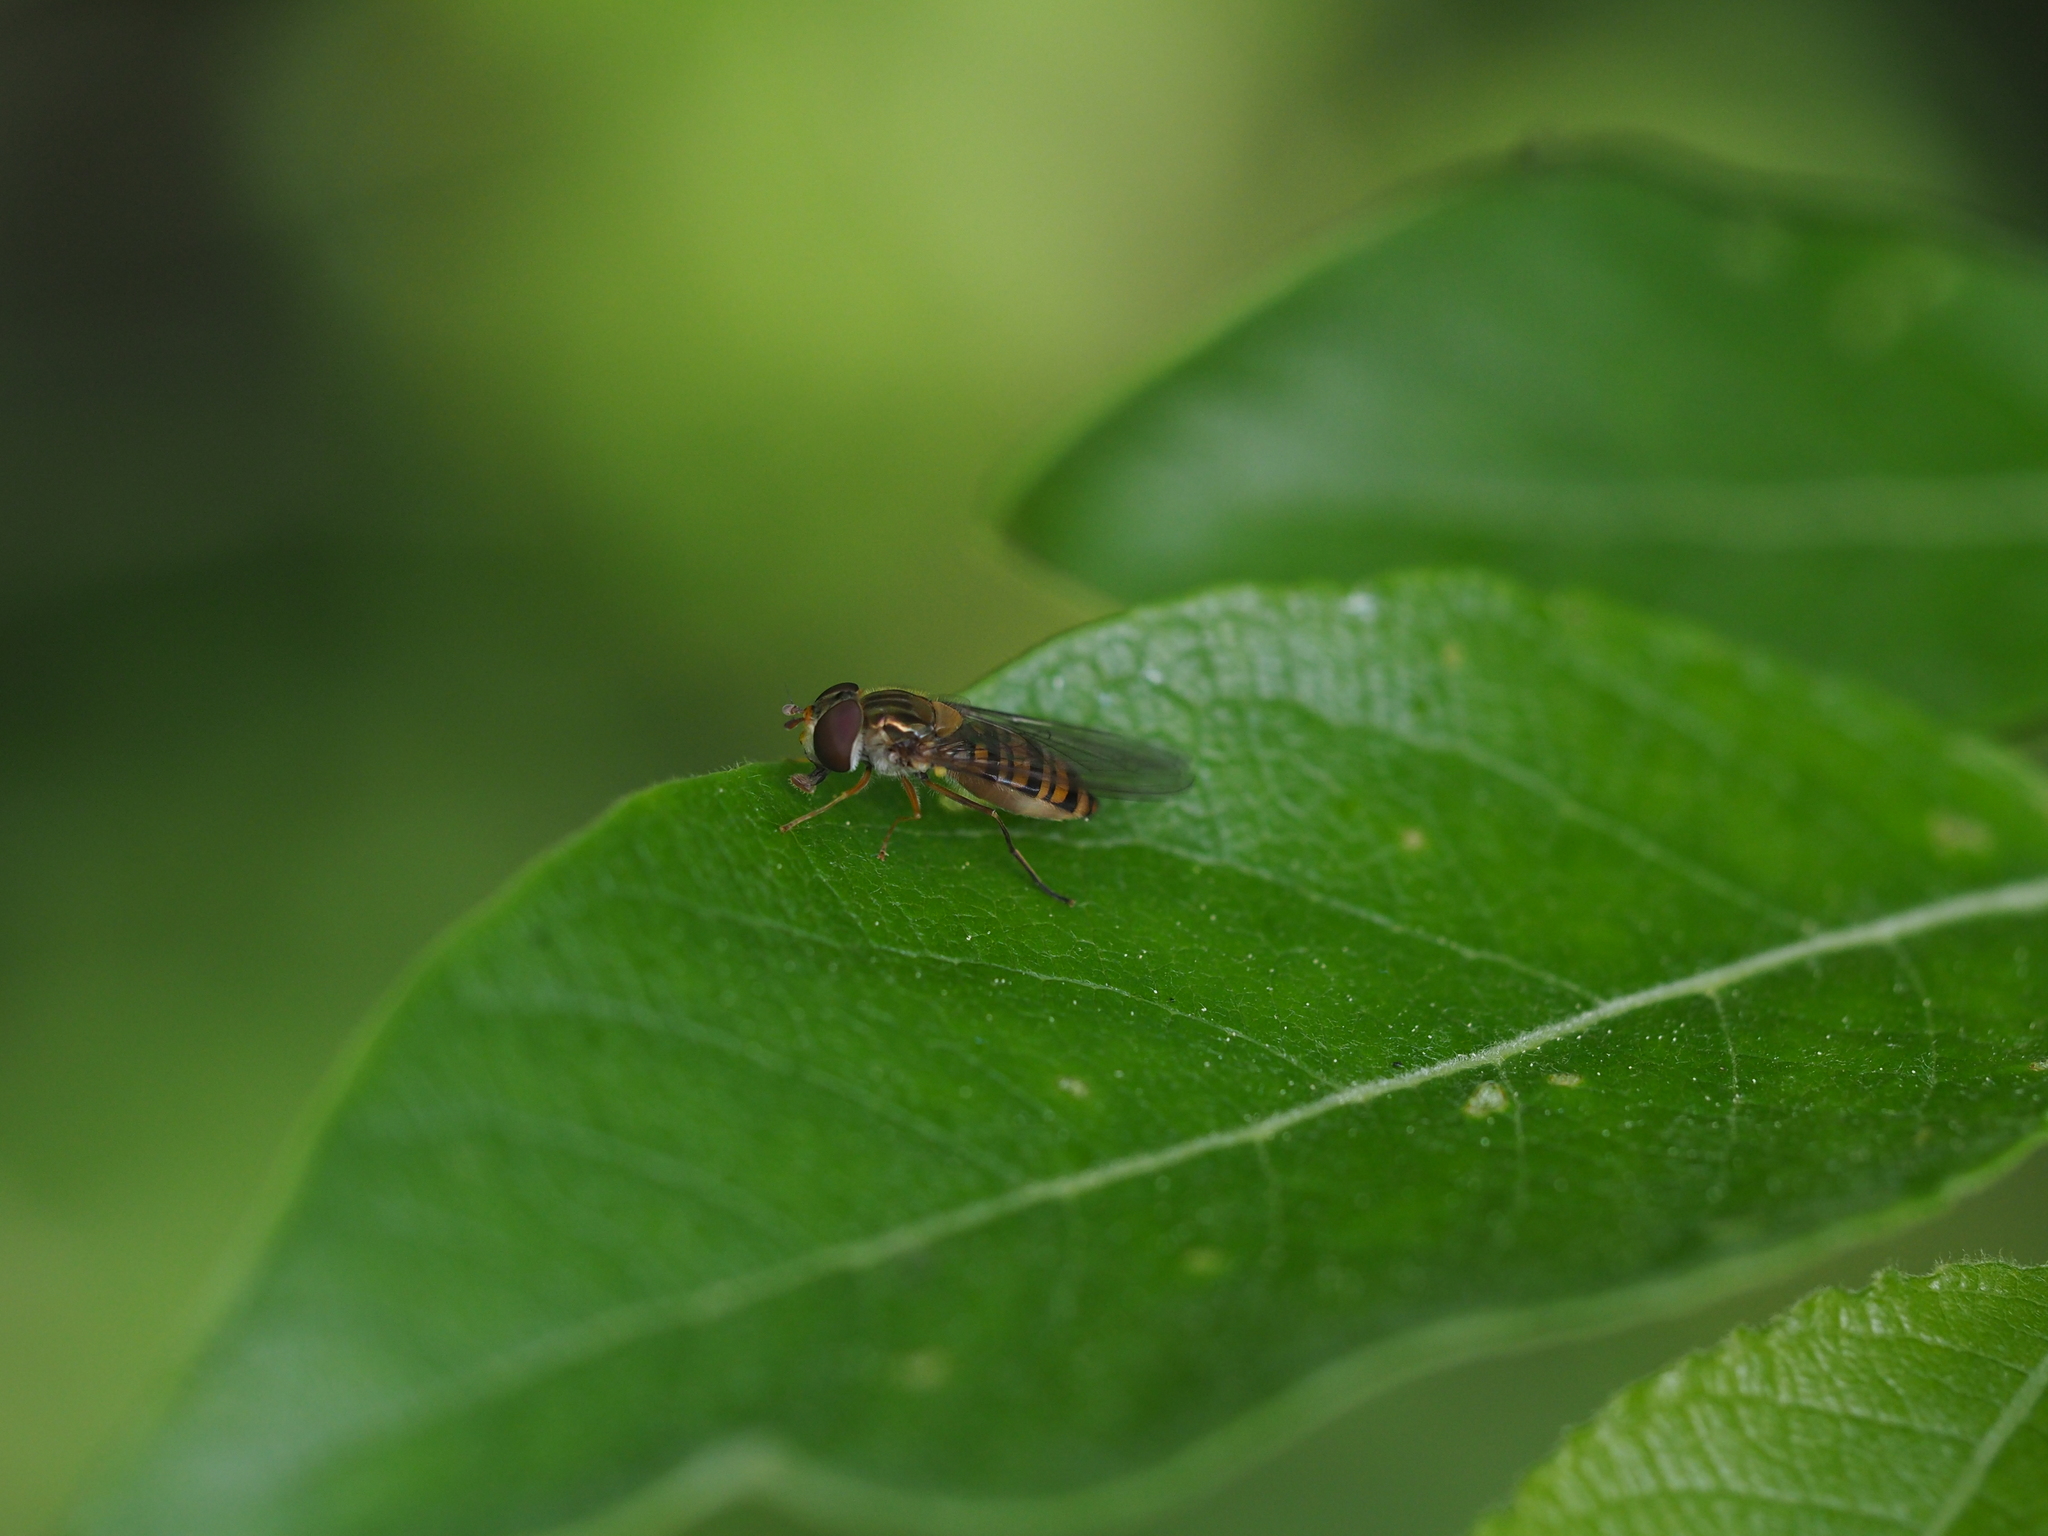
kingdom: Animalia
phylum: Arthropoda
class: Insecta
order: Diptera
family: Syrphidae
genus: Episyrphus
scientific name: Episyrphus balteatus
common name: Marmalade hoverfly
